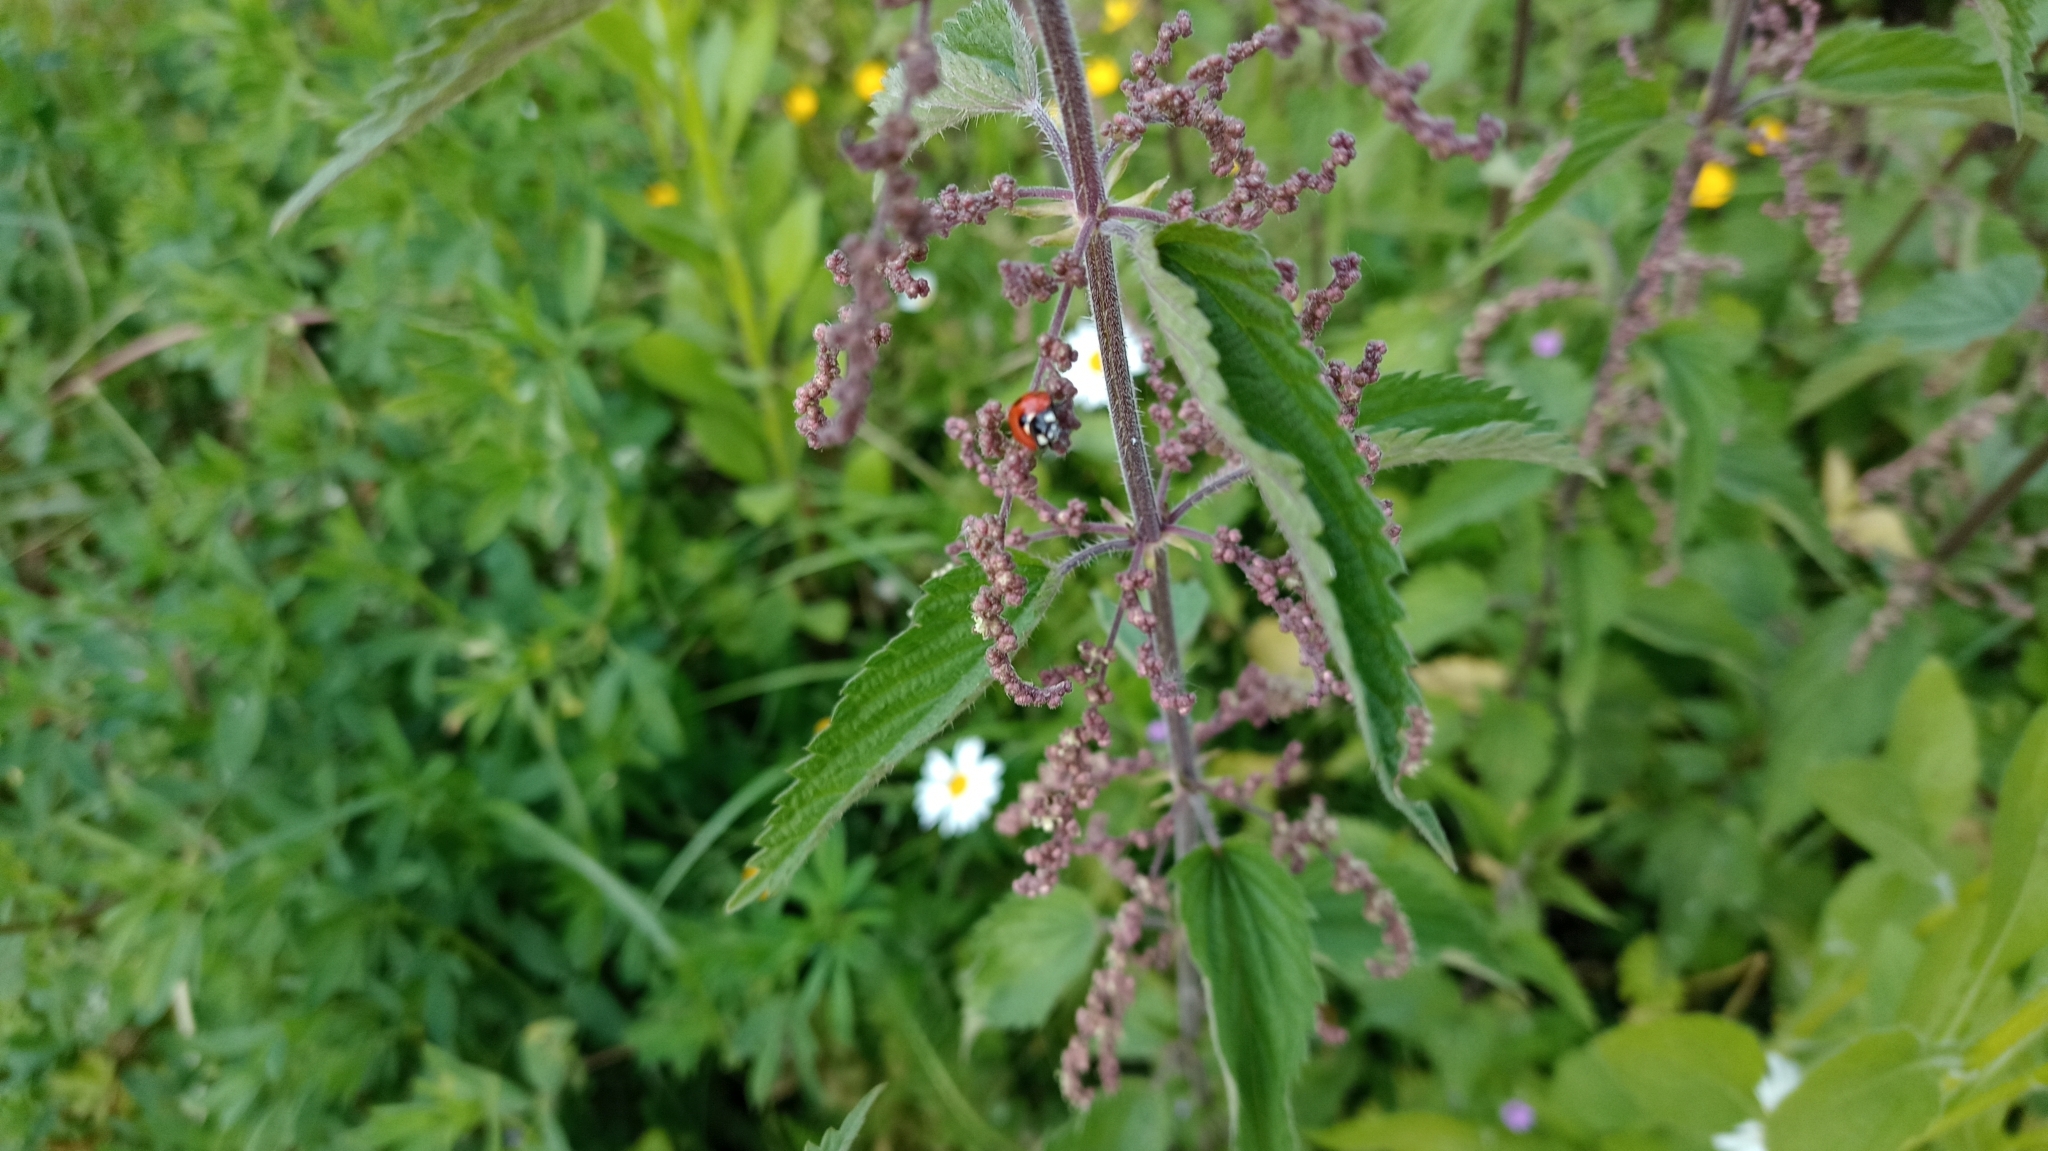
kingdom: Animalia
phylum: Arthropoda
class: Insecta
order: Coleoptera
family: Coccinellidae
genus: Coccinella
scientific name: Coccinella septempunctata
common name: Sevenspotted lady beetle
